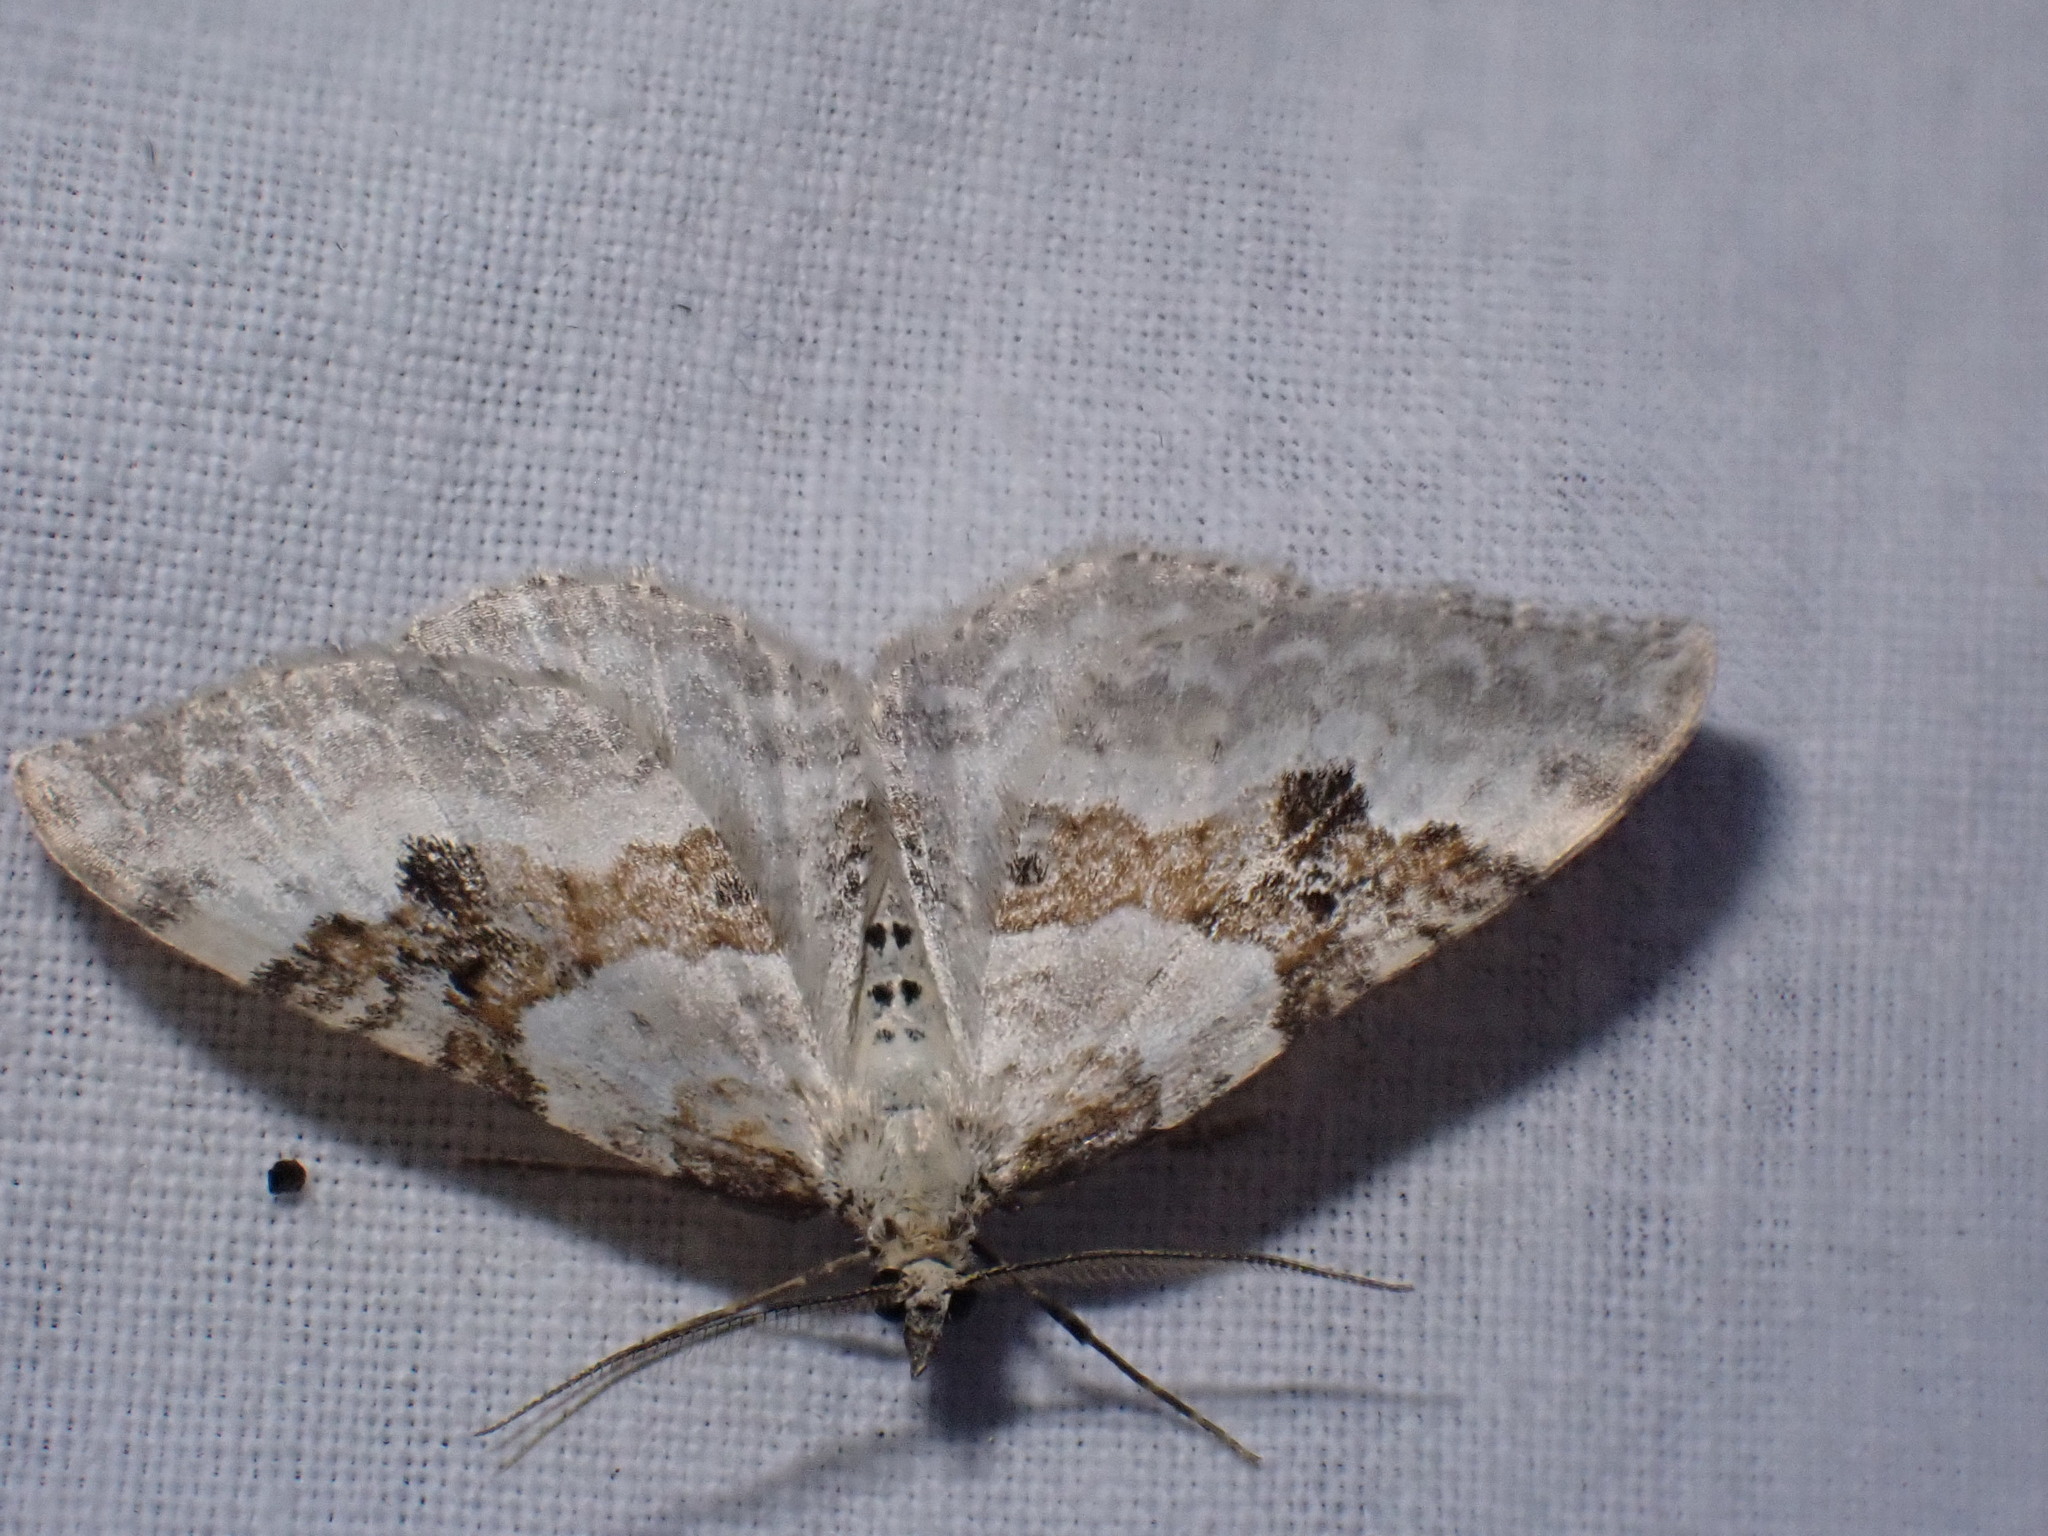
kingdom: Animalia
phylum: Arthropoda
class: Insecta
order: Lepidoptera
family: Geometridae
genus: Xanthorhoe
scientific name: Xanthorhoe montanata
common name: Silver-ground carpet
